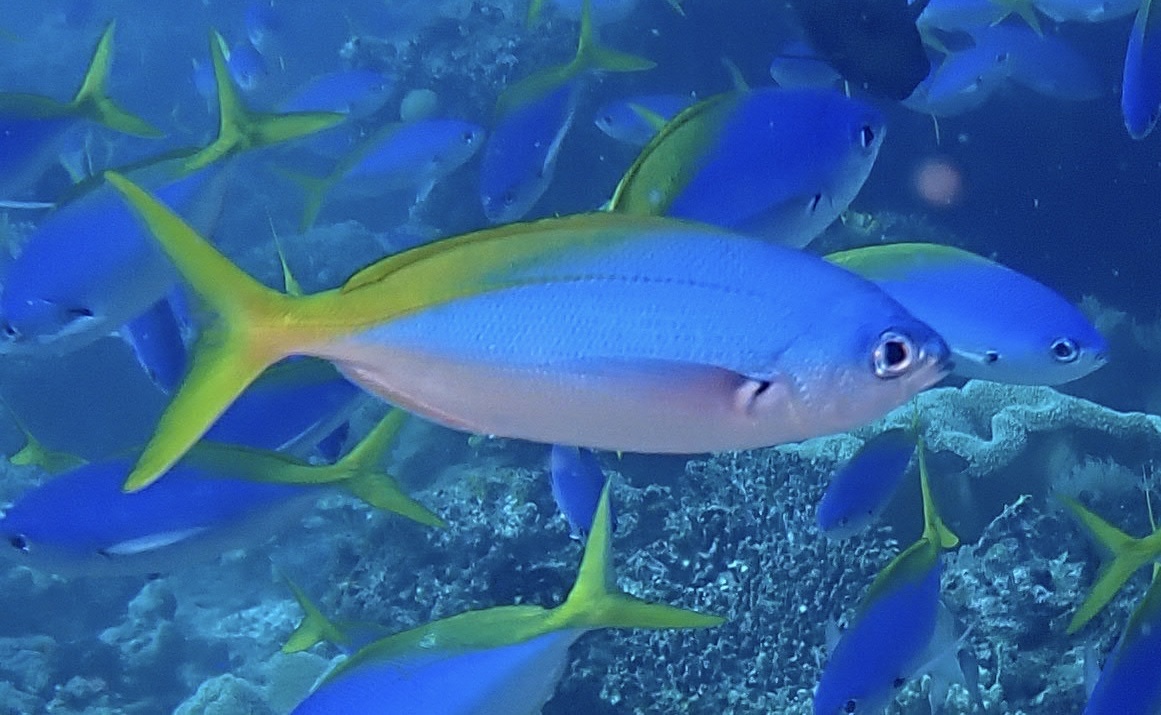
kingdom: Animalia
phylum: Chordata
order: Perciformes
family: Caesionidae
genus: Caesio
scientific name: Caesio teres
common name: Yellow and blueback fusilier
